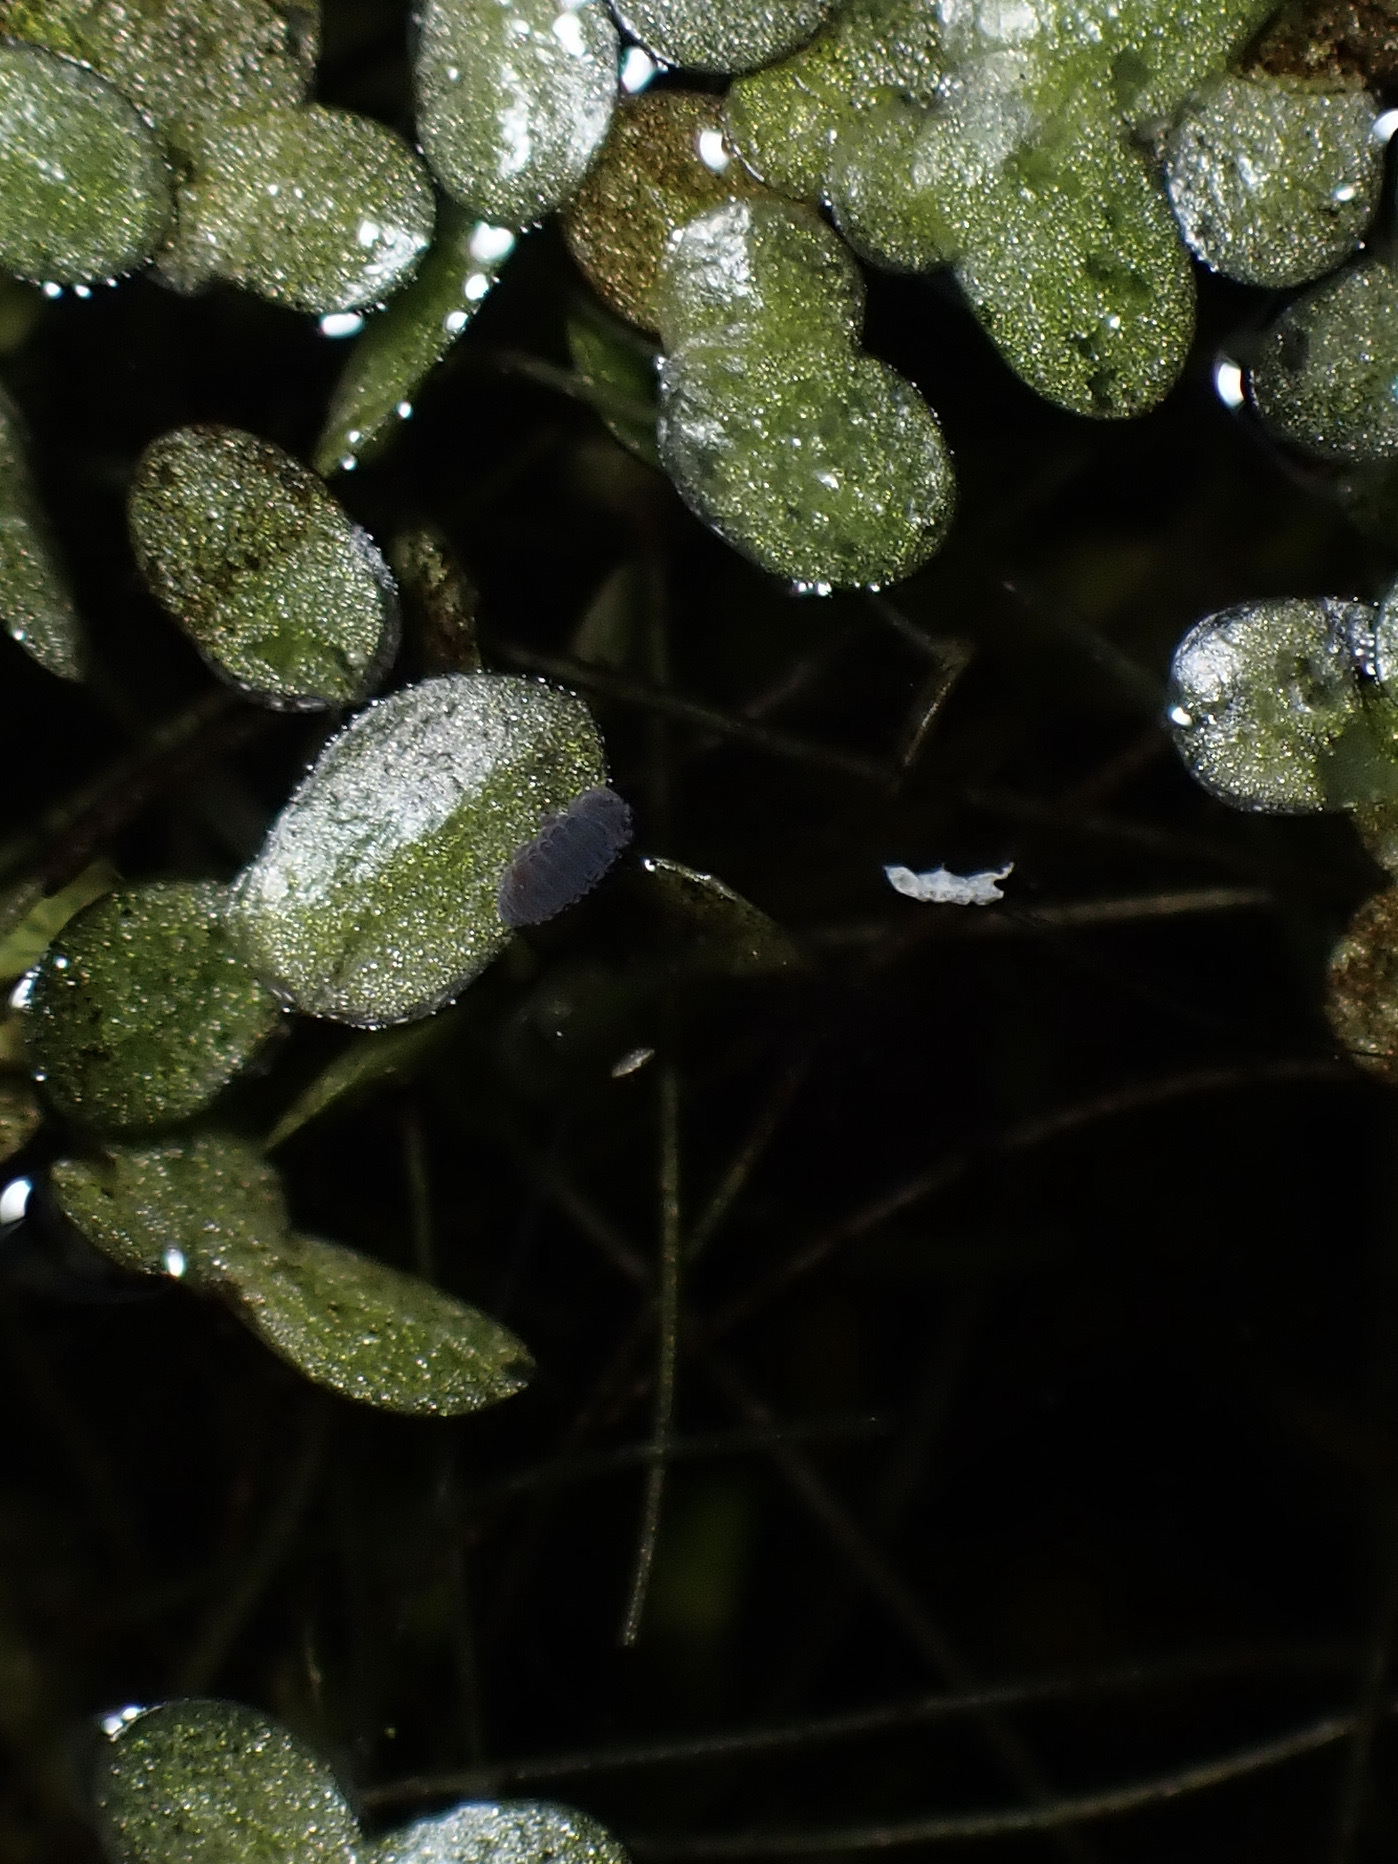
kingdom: Animalia
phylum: Arthropoda
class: Collembola
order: Poduromorpha
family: Poduridae
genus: Podura
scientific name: Podura aquatica
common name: Water springtail
